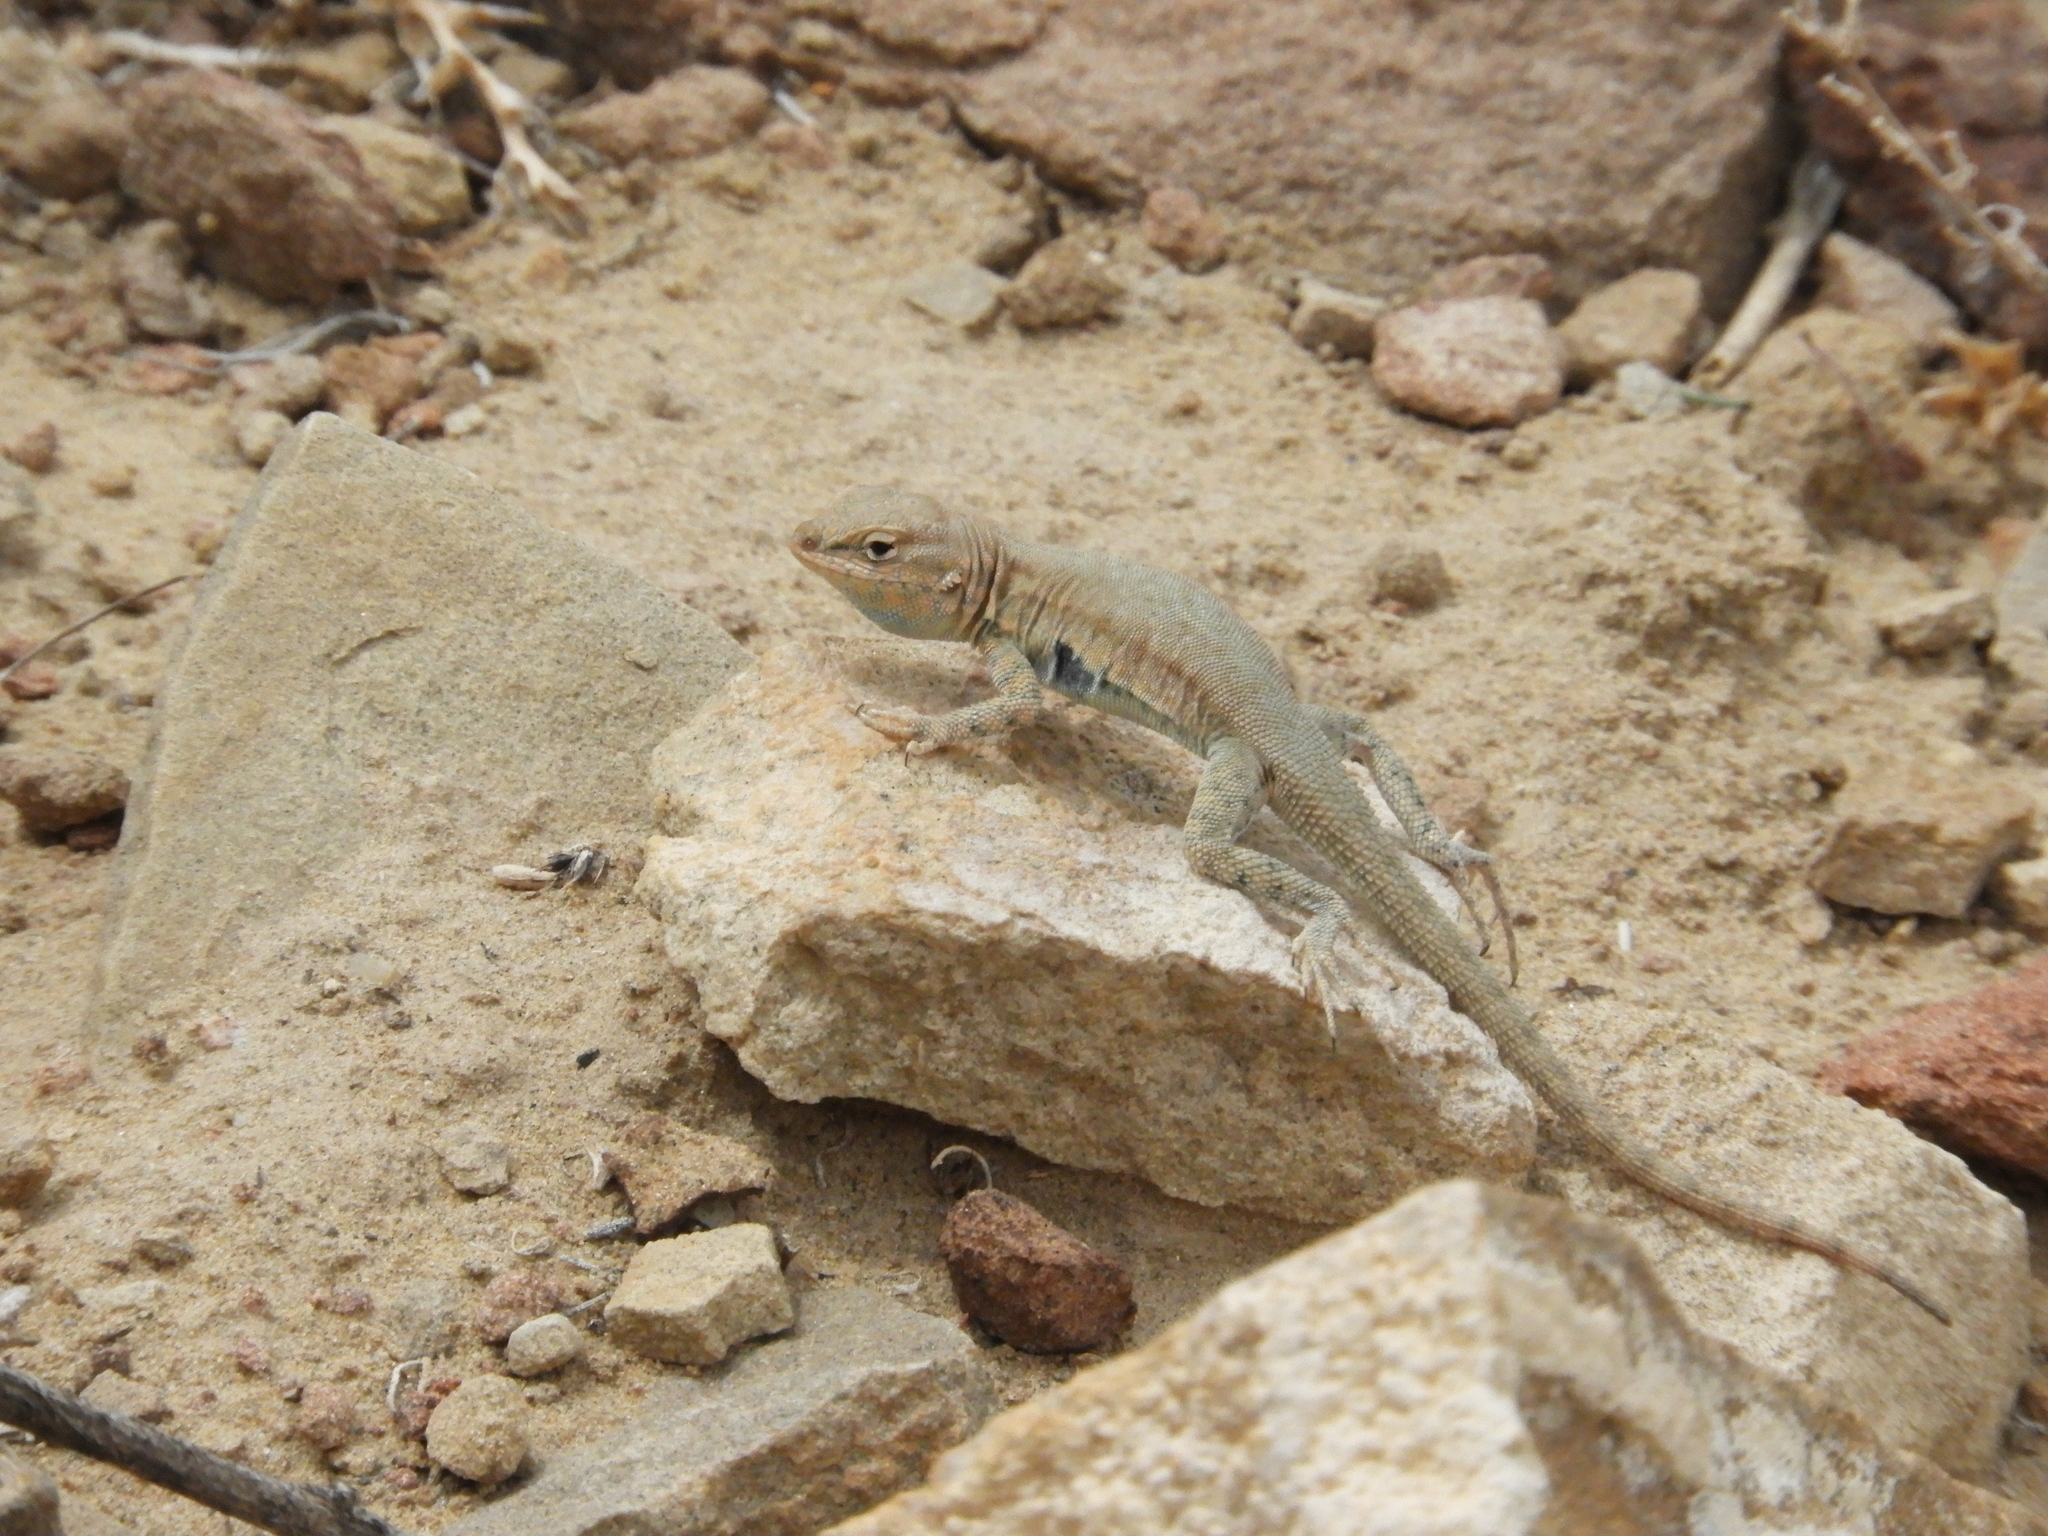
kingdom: Animalia
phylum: Chordata
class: Squamata
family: Phrynosomatidae
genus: Uta
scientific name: Uta stansburiana
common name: Side-blotched lizard
